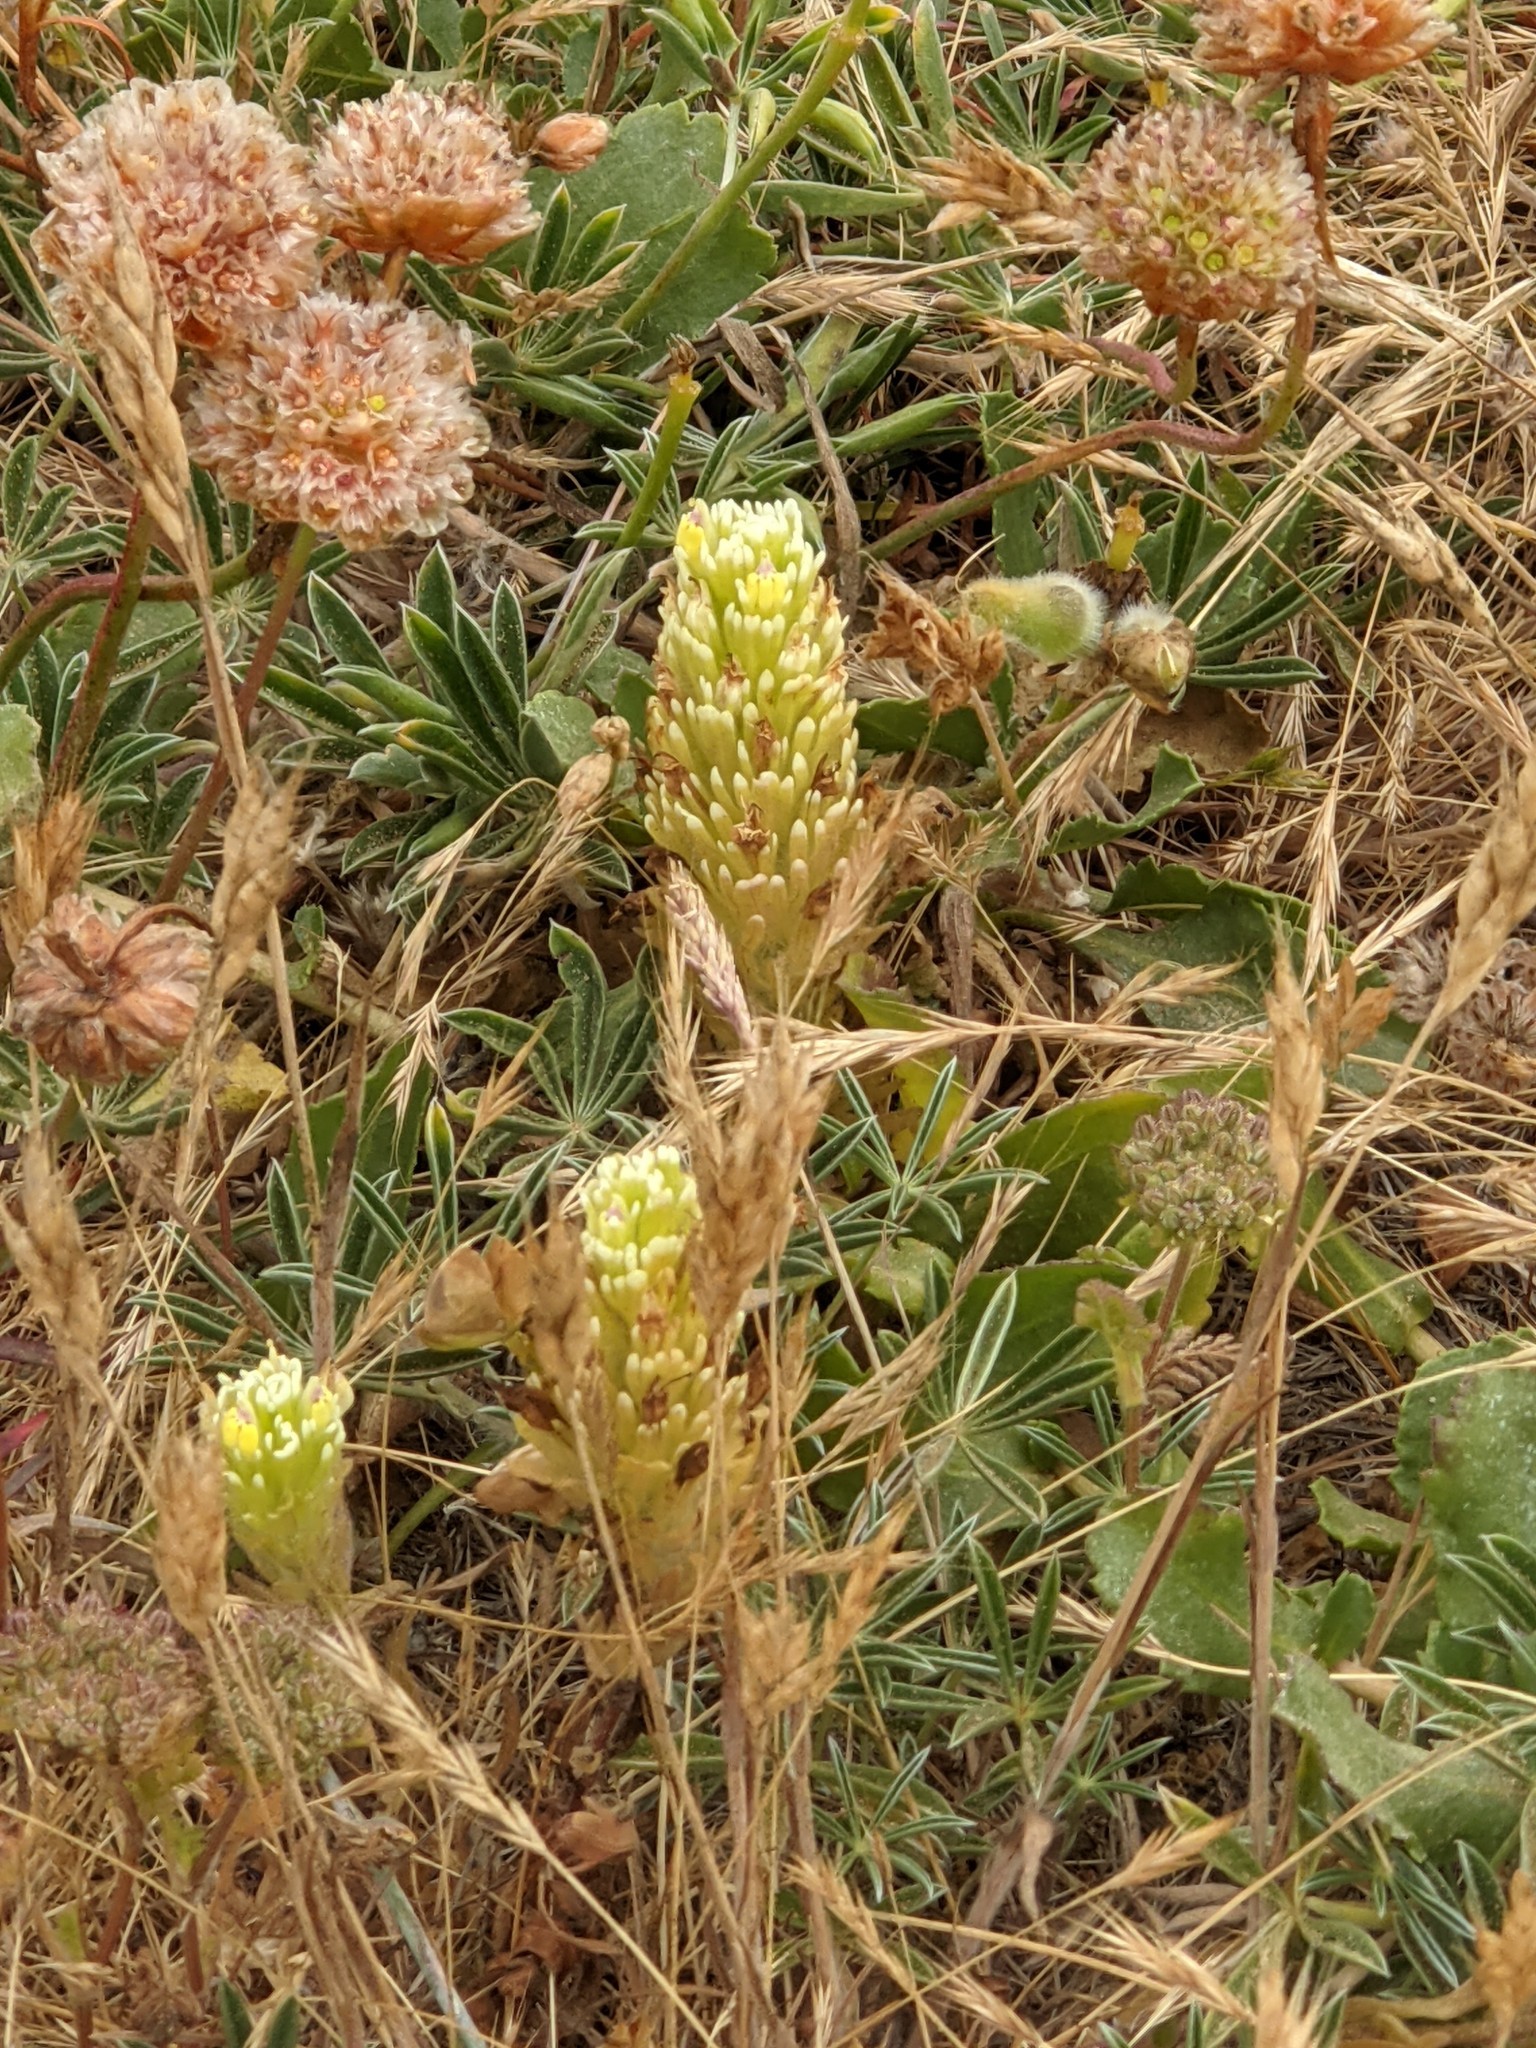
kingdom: Plantae
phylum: Tracheophyta
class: Magnoliopsida
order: Lamiales
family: Orobanchaceae
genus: Castilleja
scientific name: Castilleja ambigua
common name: Johnny-nip
